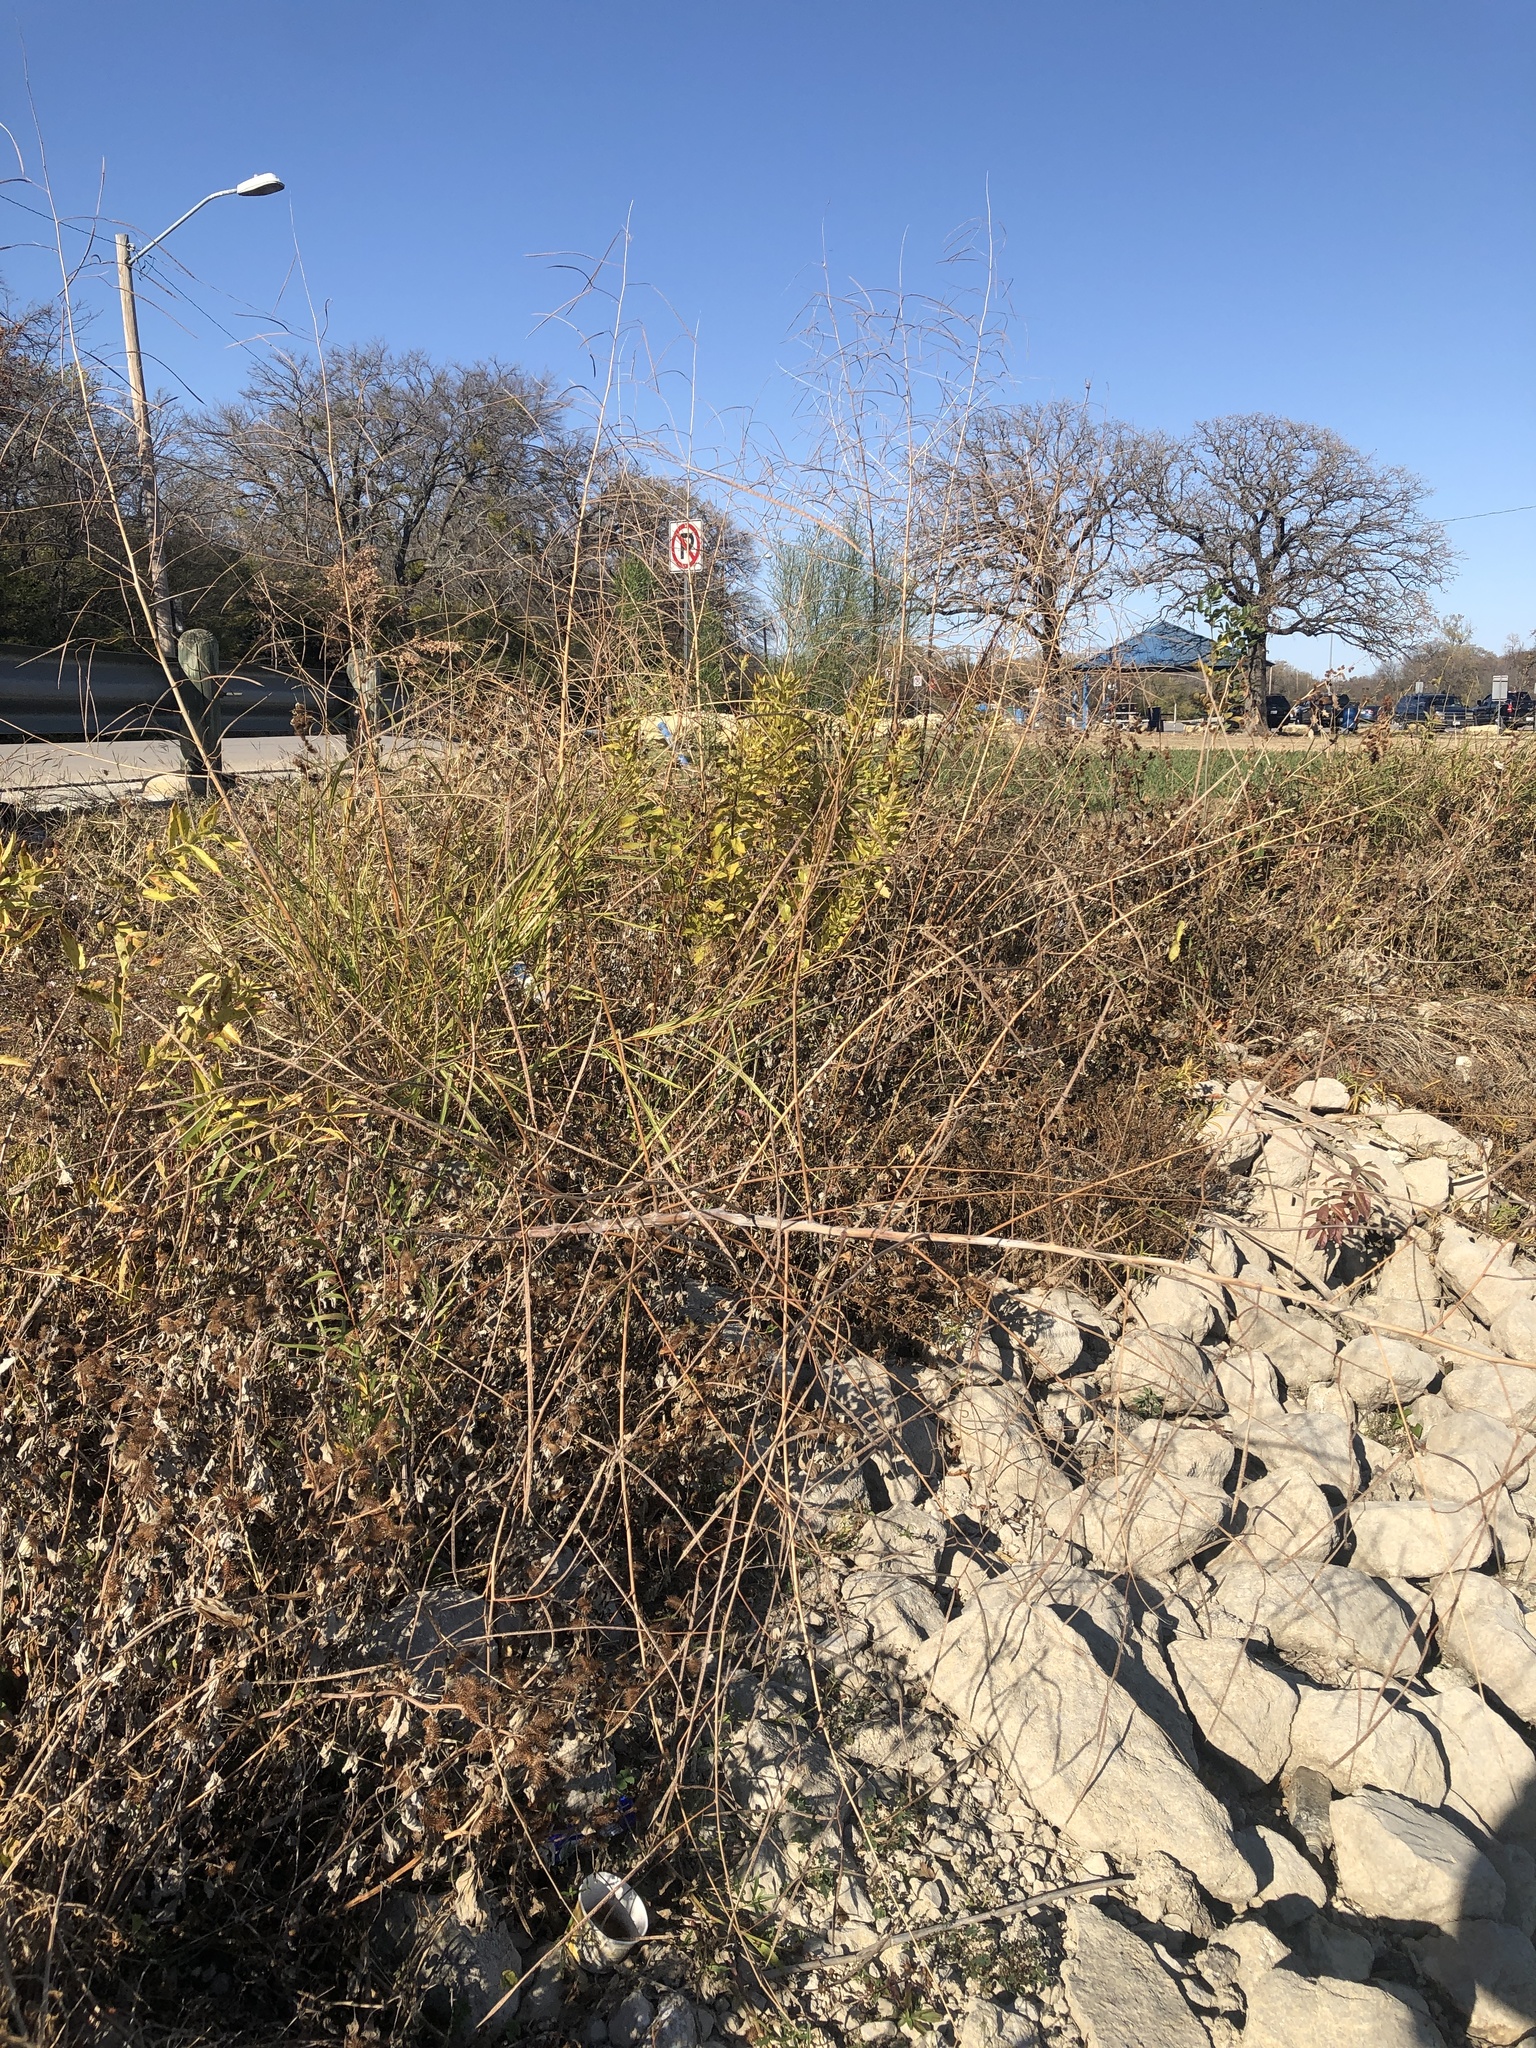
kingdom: Plantae
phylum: Tracheophyta
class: Magnoliopsida
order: Fabales
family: Fabaceae
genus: Sesbania
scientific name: Sesbania herbacea
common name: Bigpod sesbania
